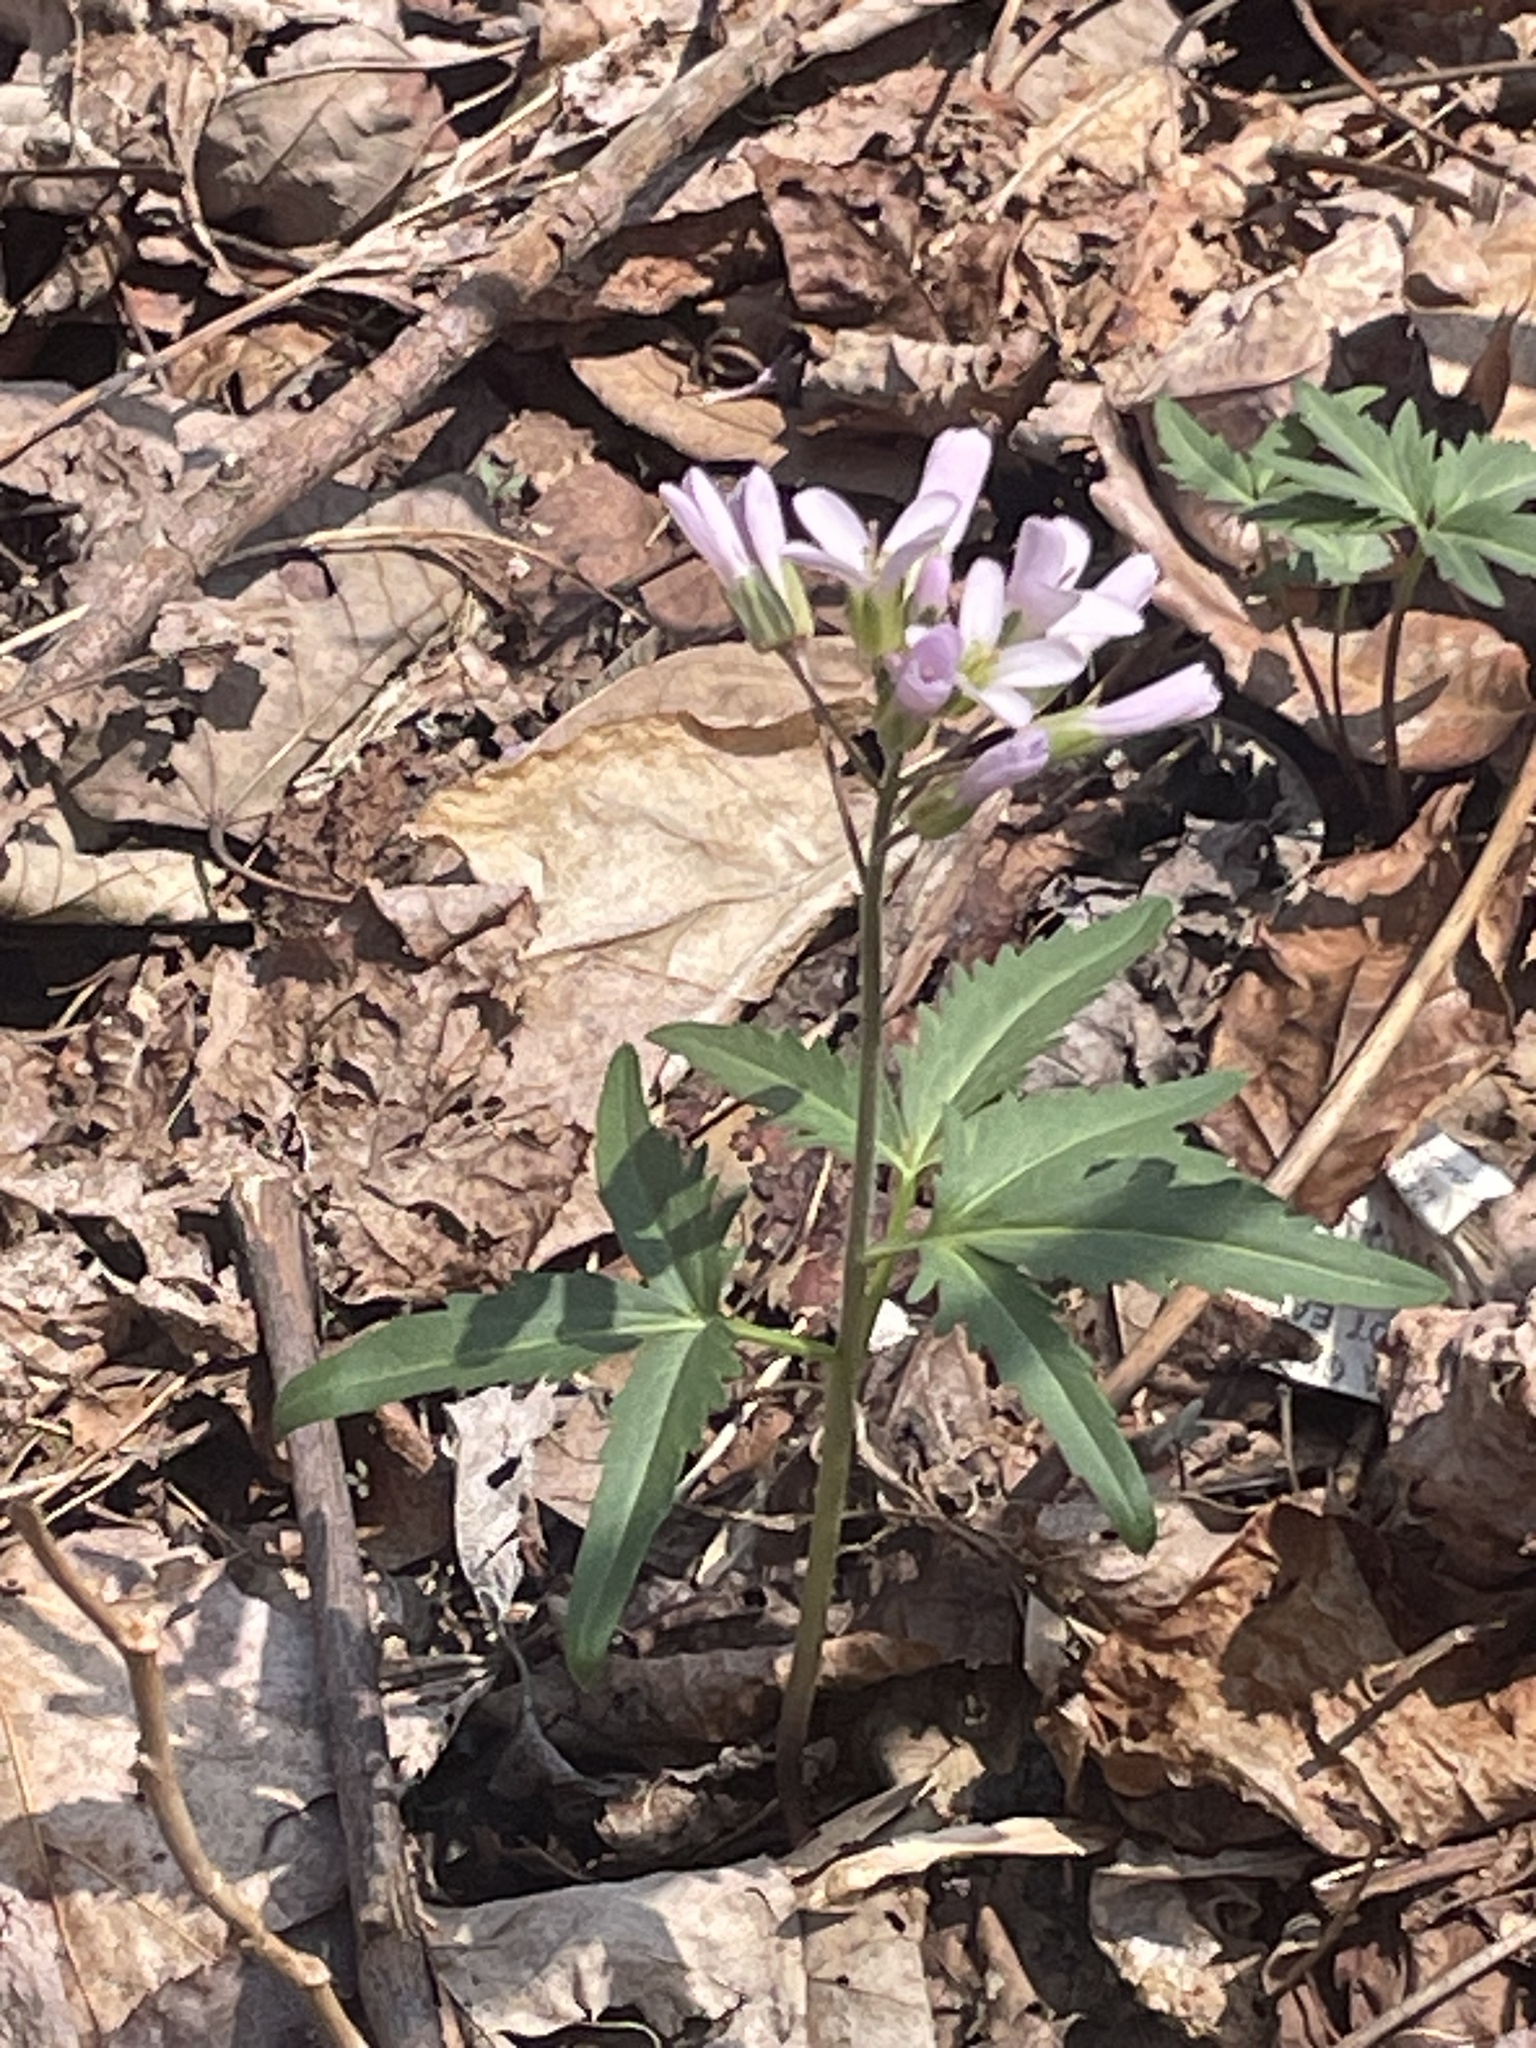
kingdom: Plantae
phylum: Tracheophyta
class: Magnoliopsida
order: Brassicales
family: Brassicaceae
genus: Cardamine
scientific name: Cardamine concatenata
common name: Cut-leaf toothcup
